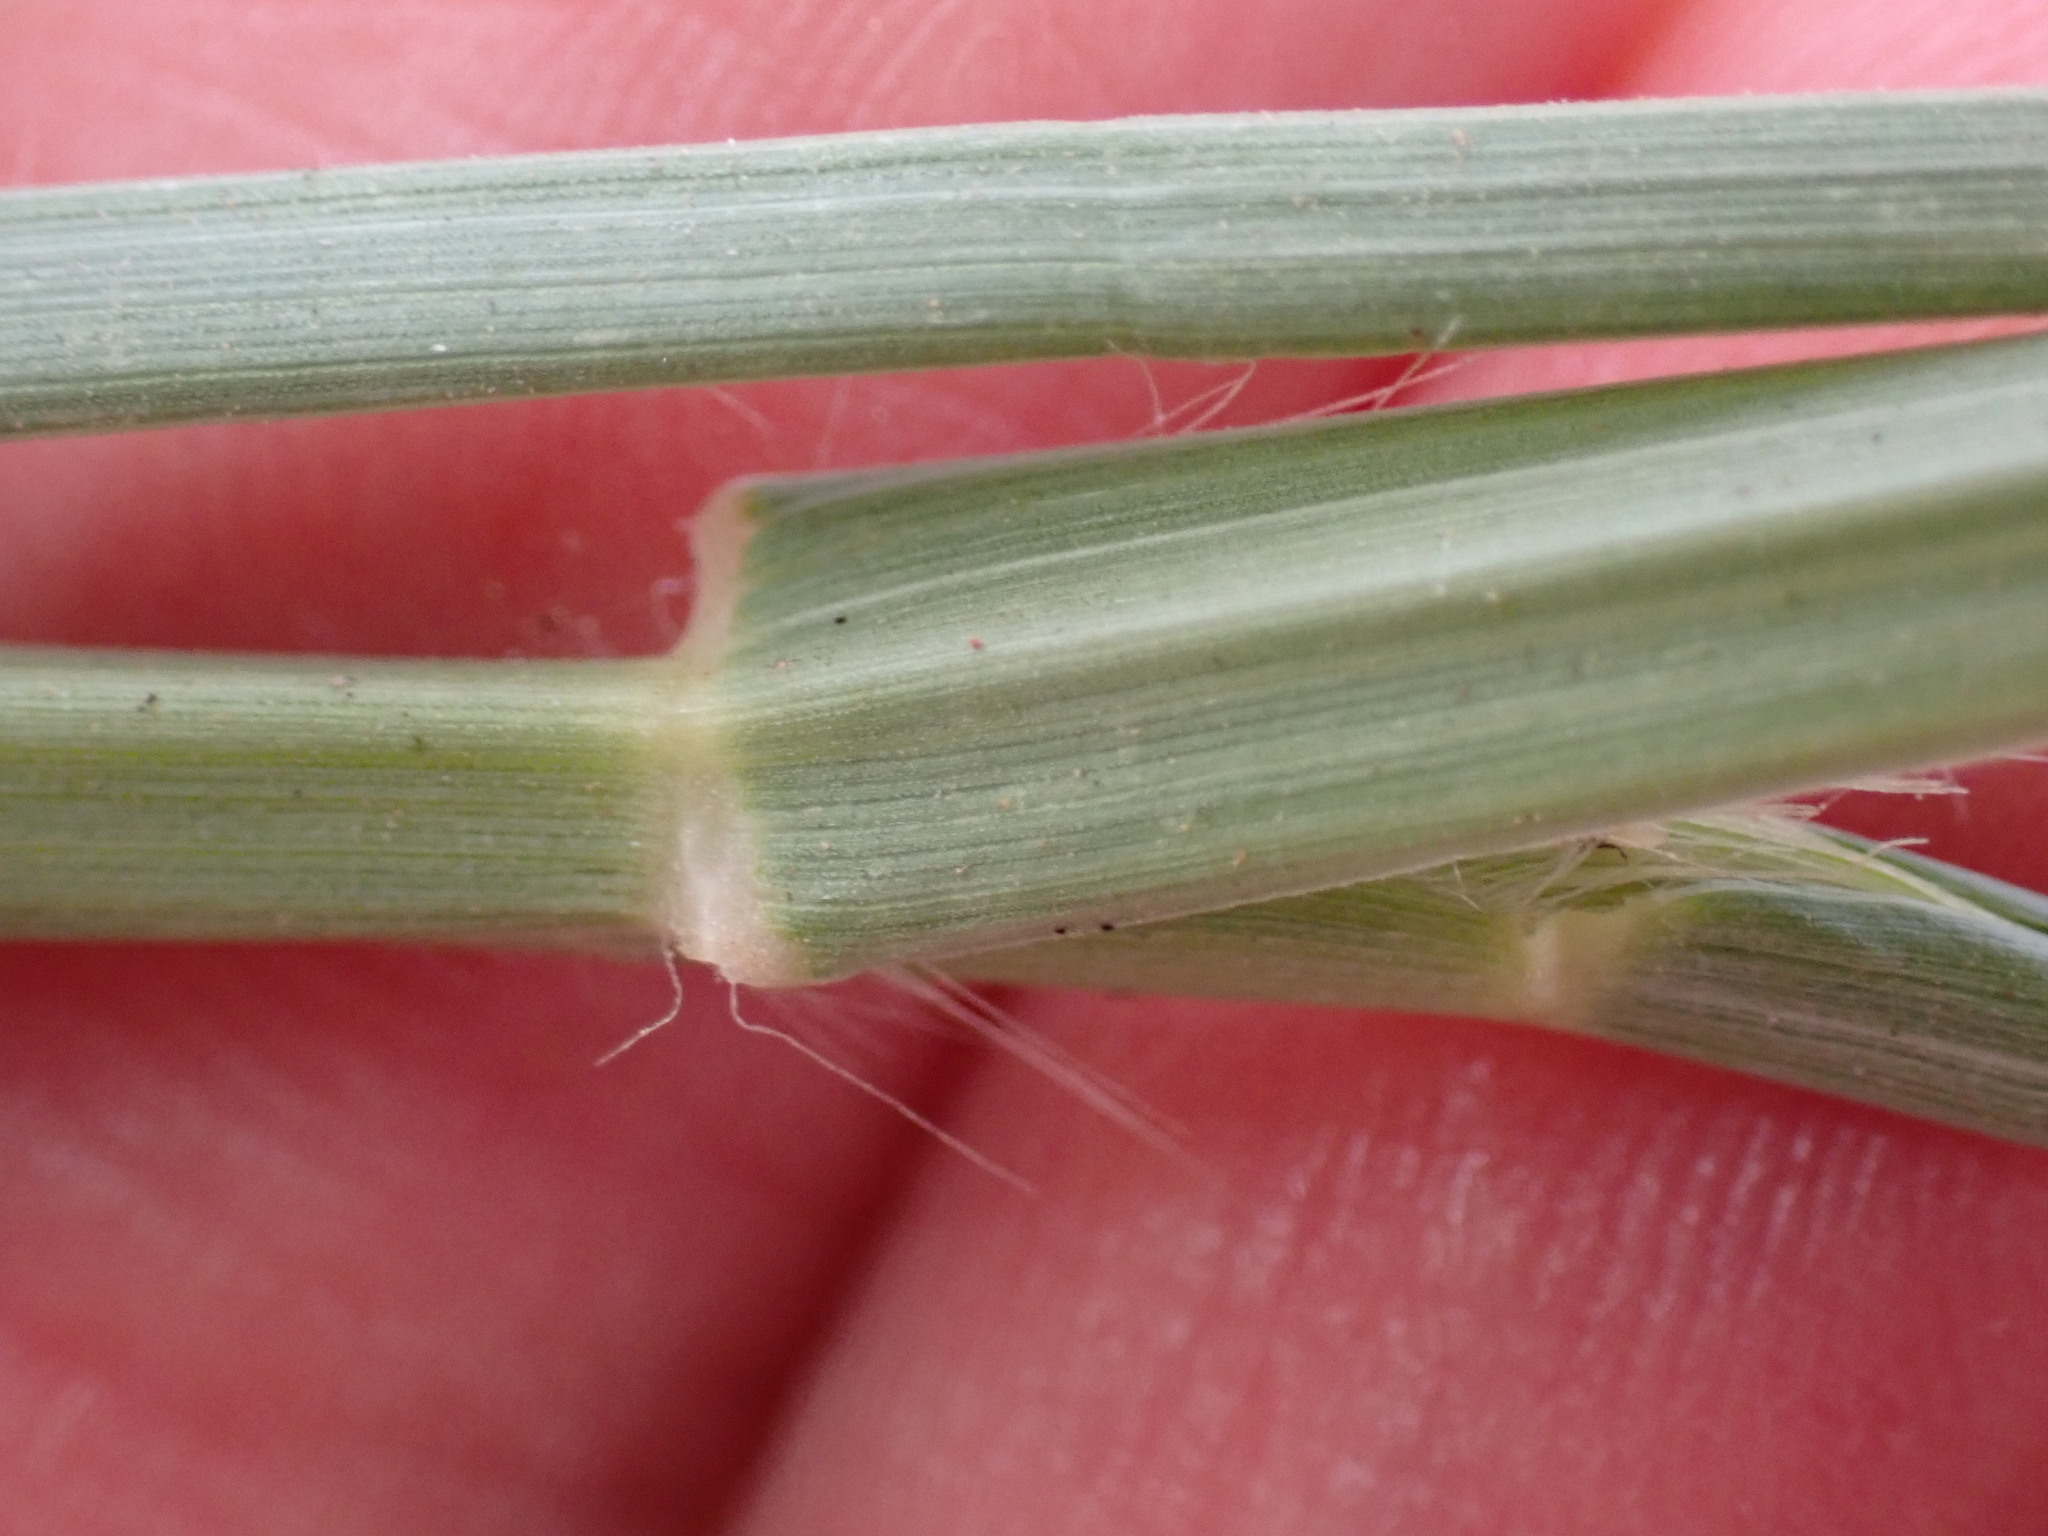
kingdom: Plantae
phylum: Tracheophyta
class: Liliopsida
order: Poales
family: Poaceae
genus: Cenchrus
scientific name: Cenchrus ciliaris
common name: Buffelgrass
